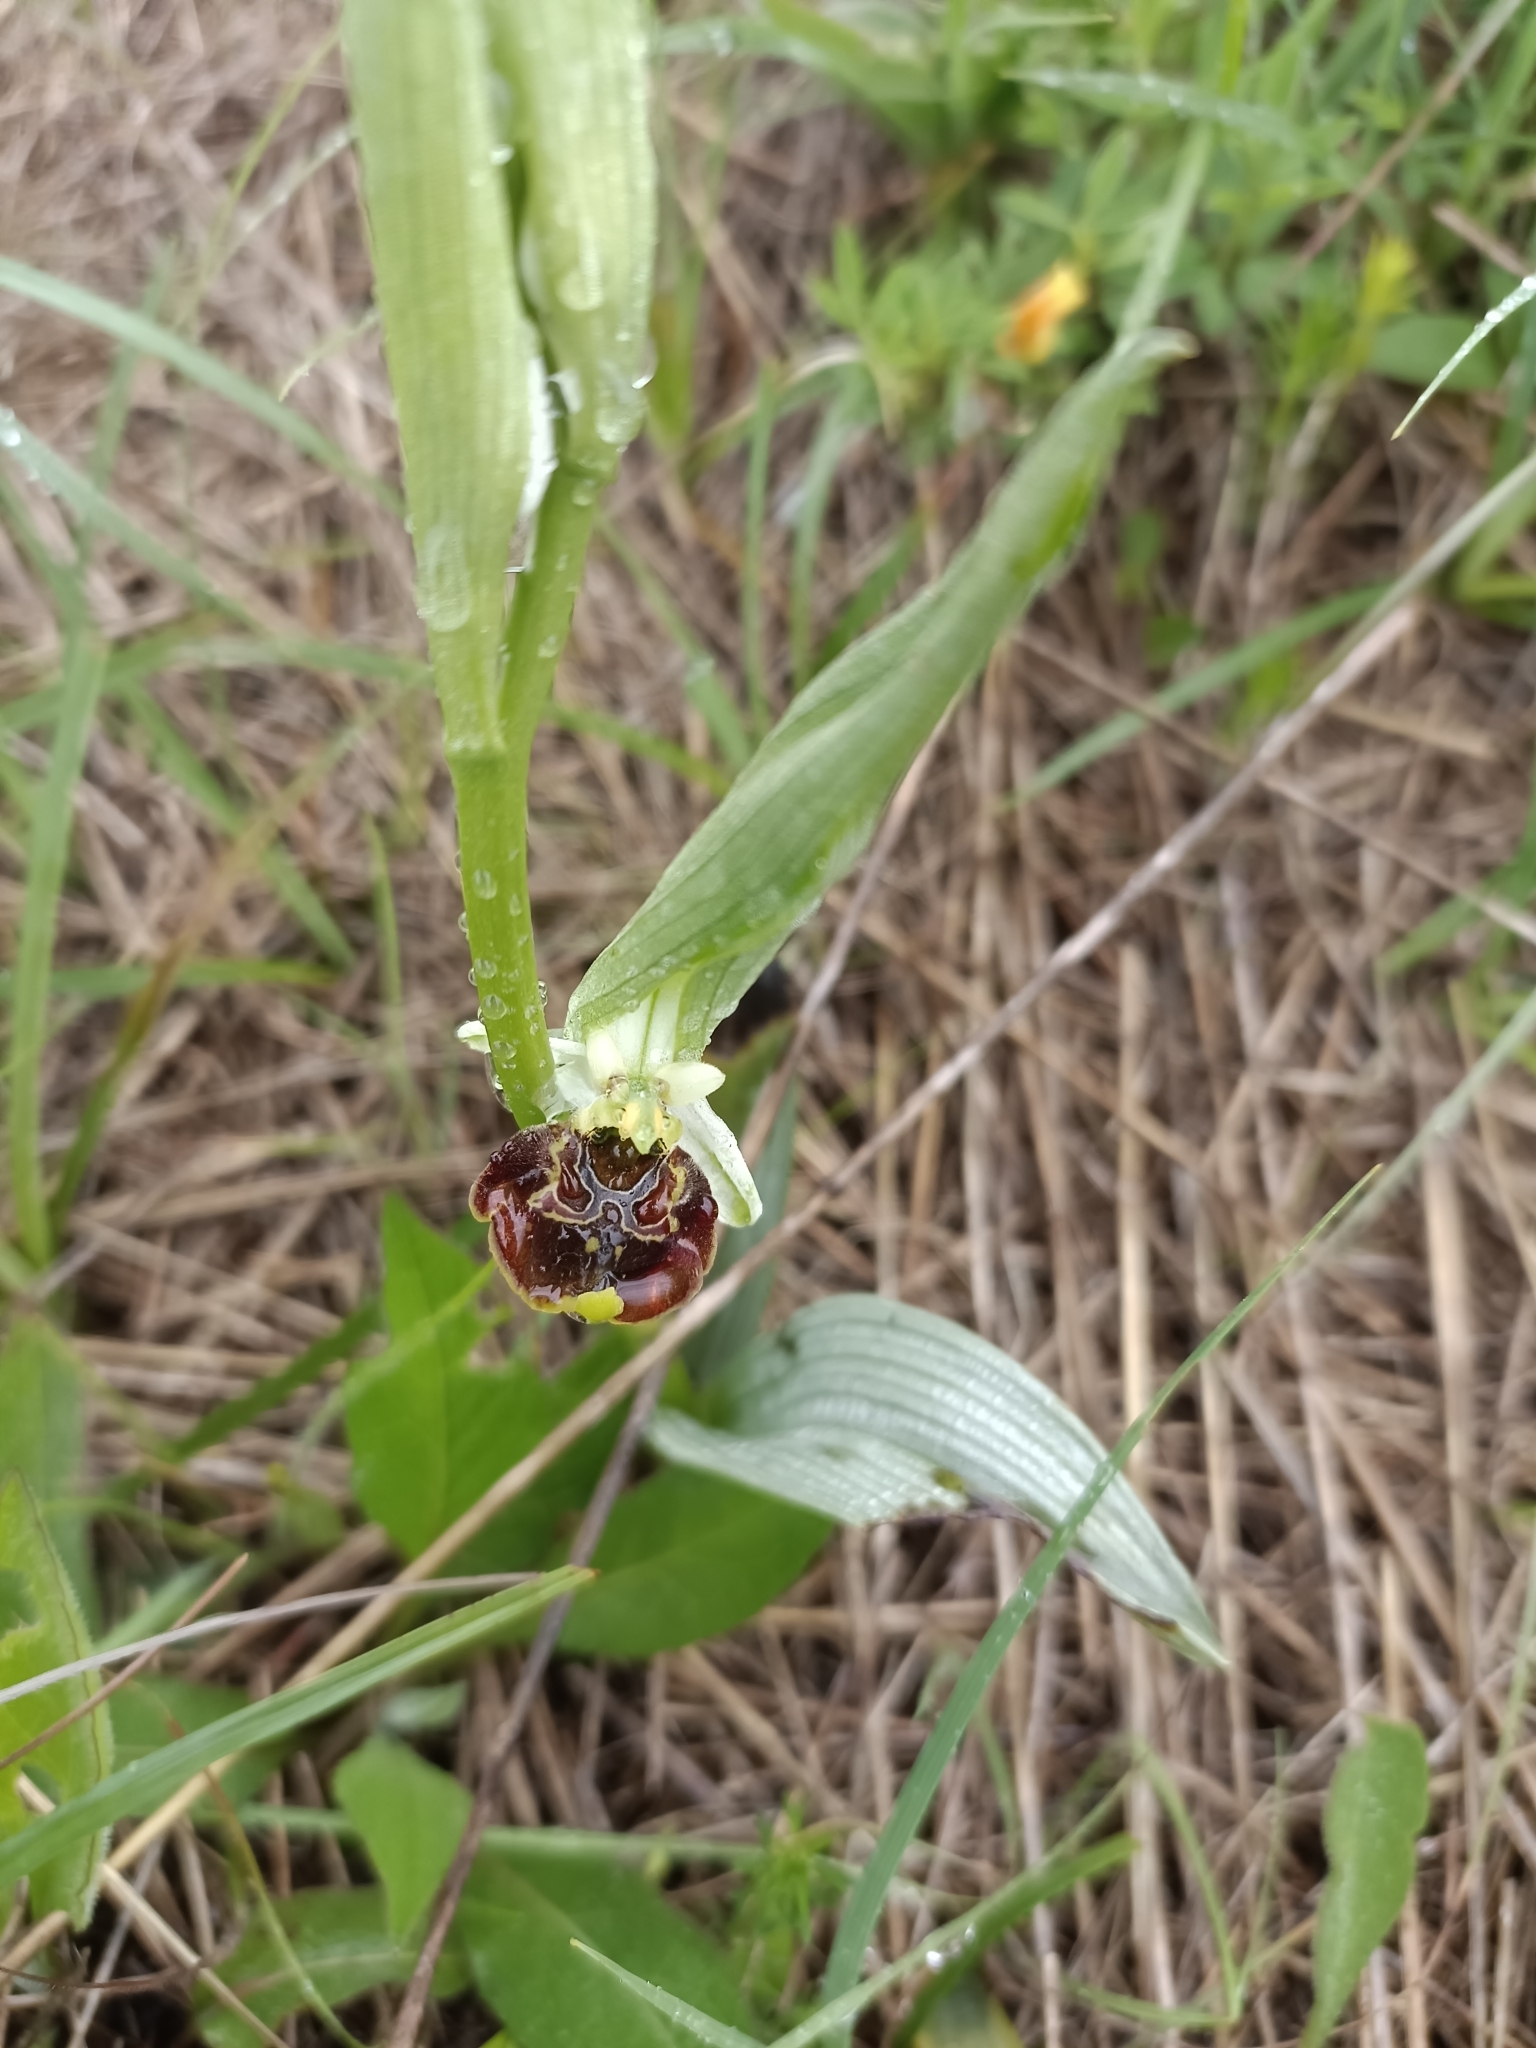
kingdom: Plantae
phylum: Tracheophyta
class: Liliopsida
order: Asparagales
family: Orchidaceae
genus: Ophrys
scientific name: Ophrys holosericea
